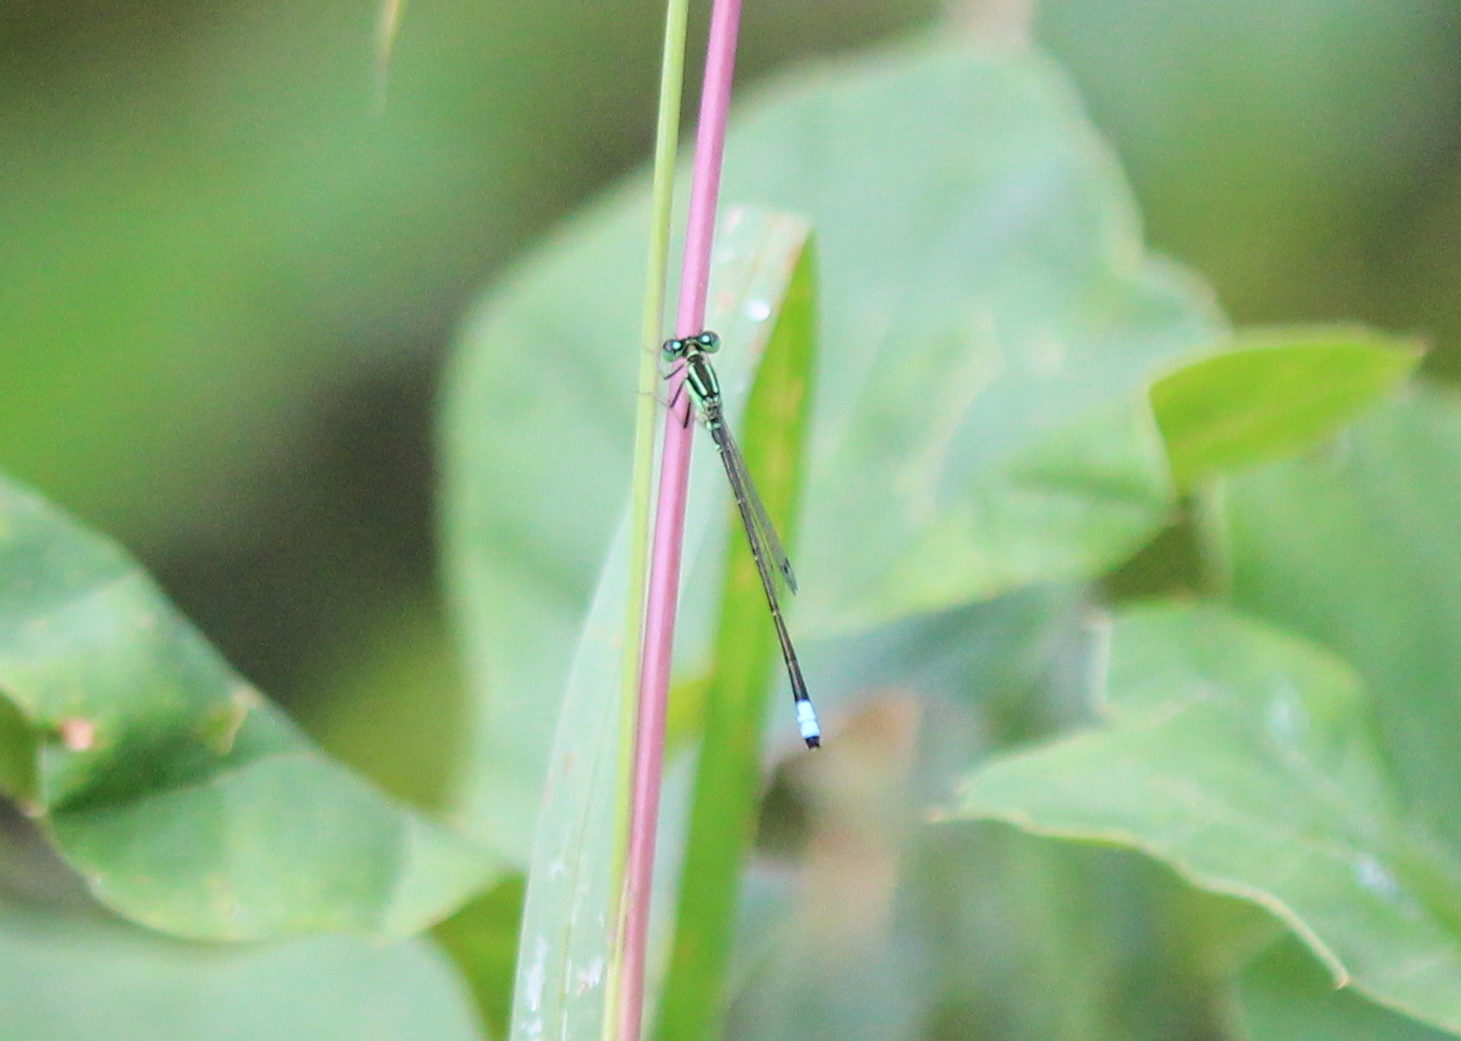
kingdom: Animalia
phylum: Arthropoda
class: Insecta
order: Odonata
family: Coenagrionidae
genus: Ischnura
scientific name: Ischnura verticalis
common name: Eastern forktail
